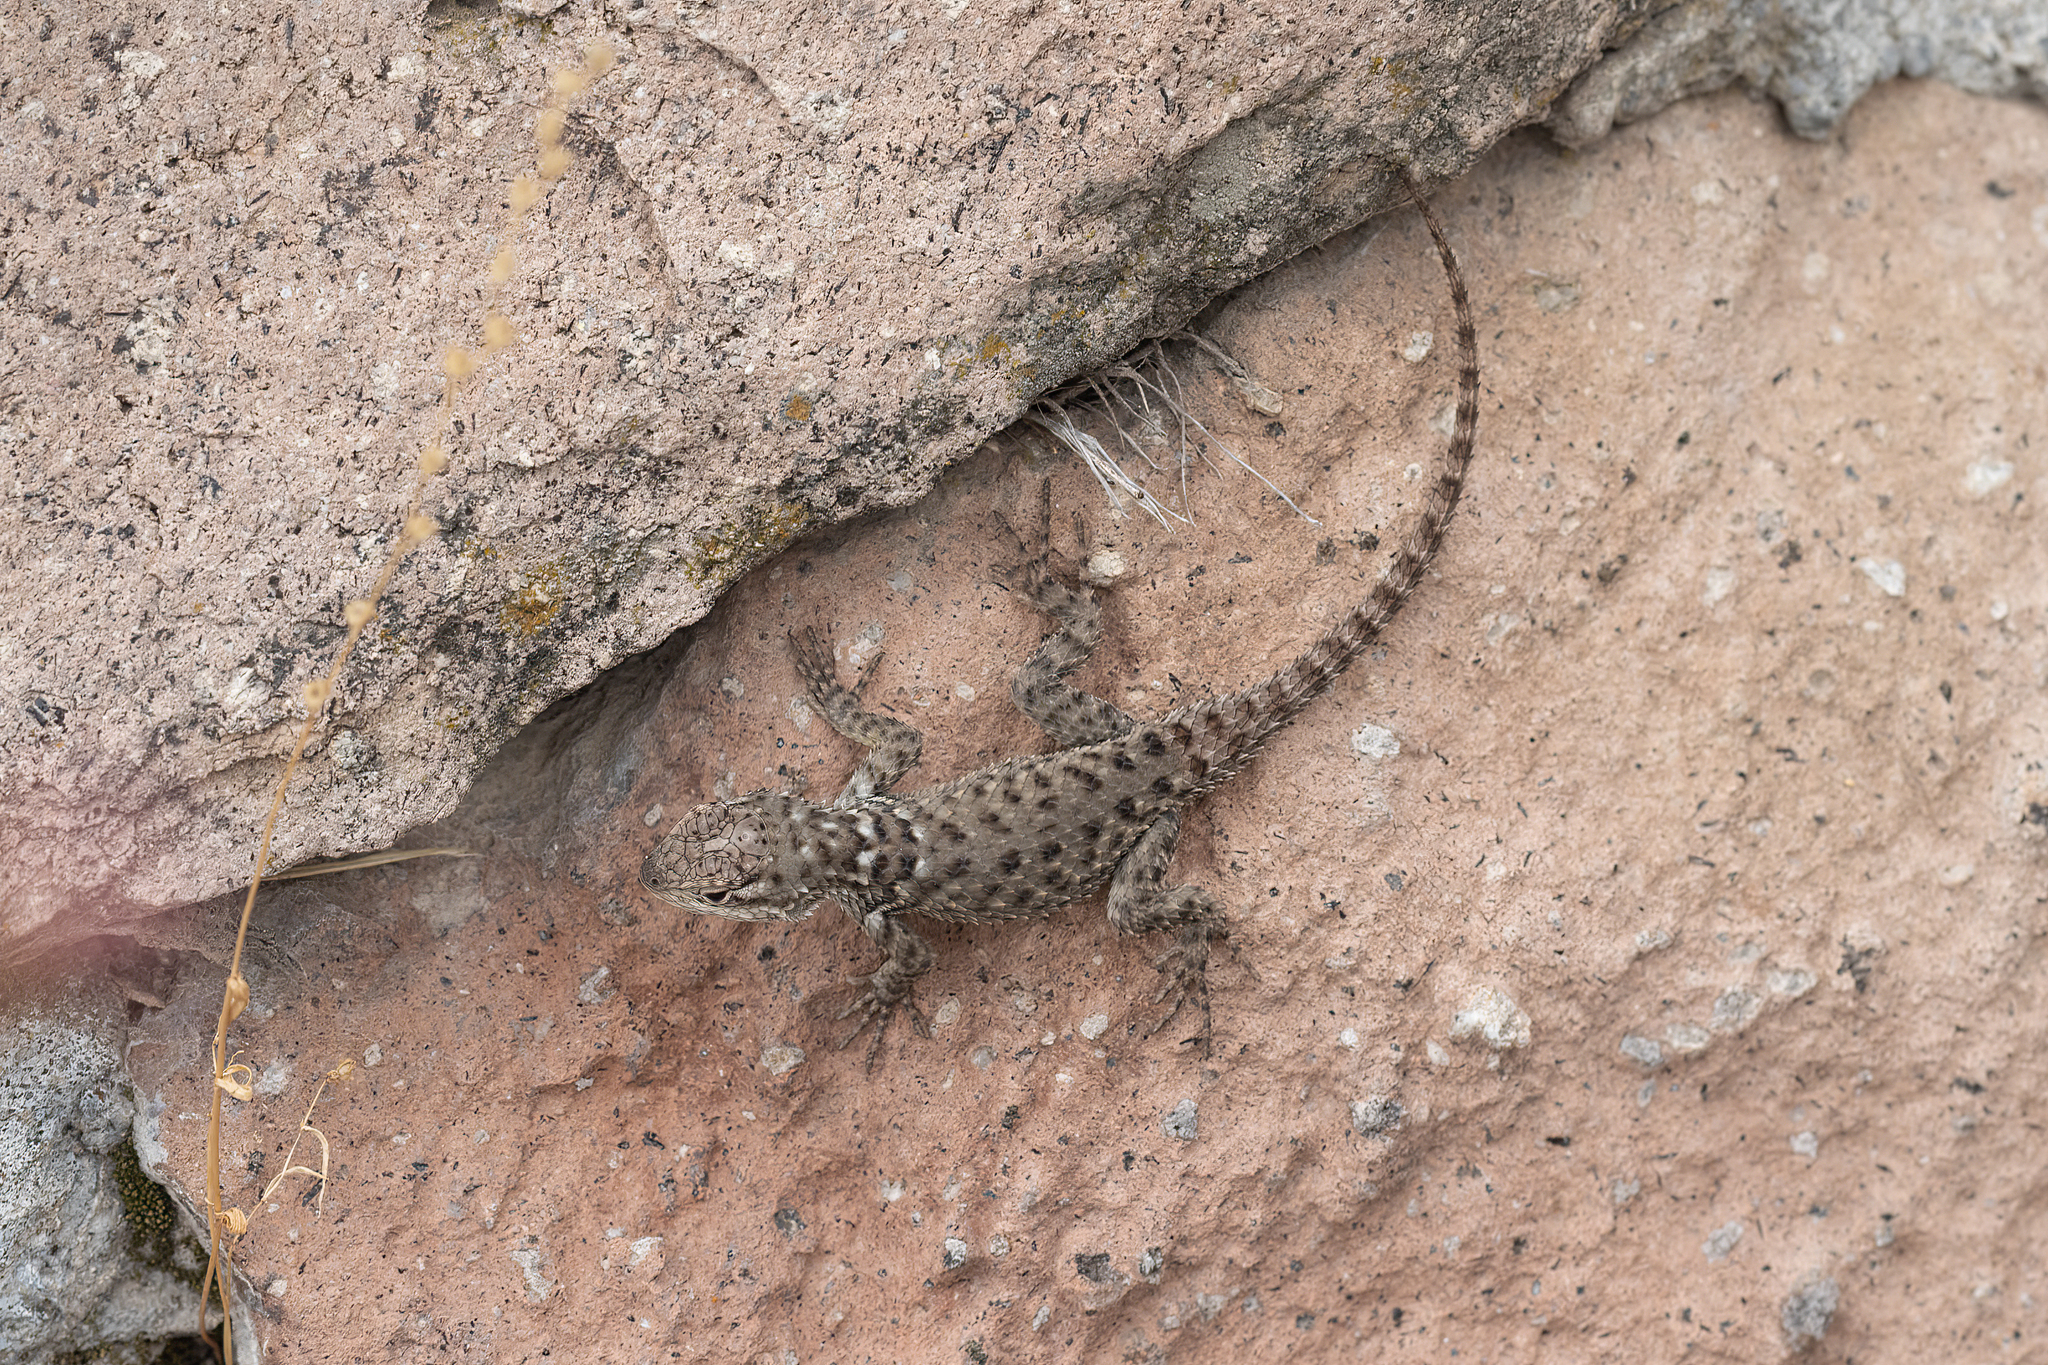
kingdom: Animalia
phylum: Chordata
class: Squamata
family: Phrynosomatidae
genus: Sceloporus
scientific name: Sceloporus torquatus
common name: Central plateau torquate lizard [melanogaster]
